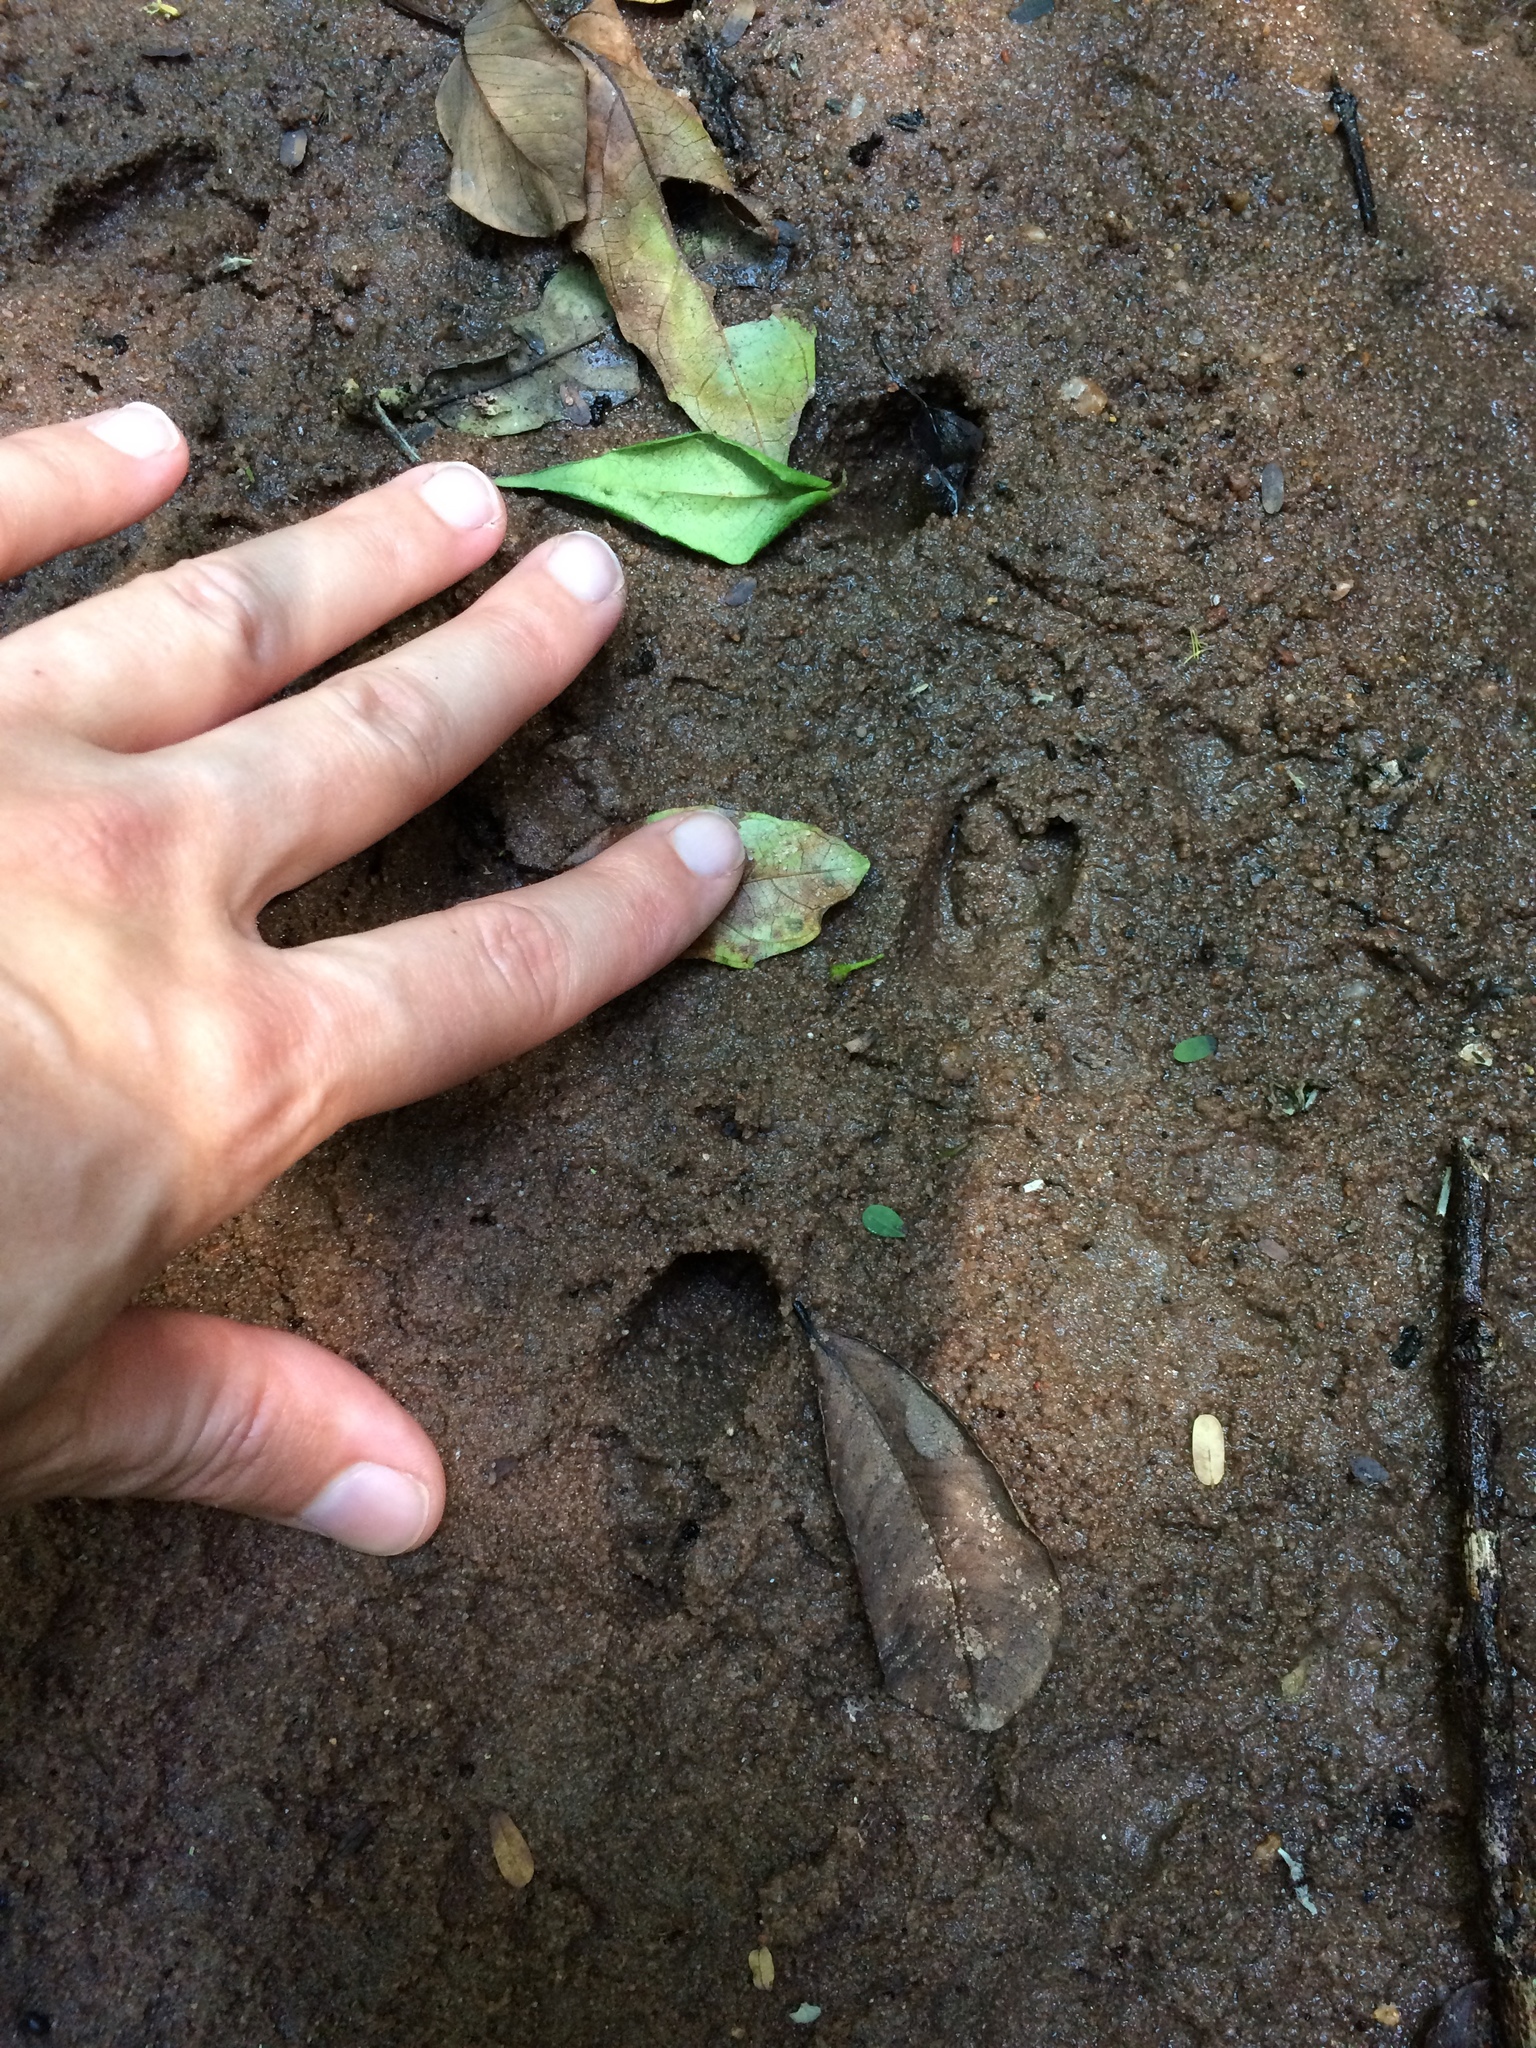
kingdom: Animalia
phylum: Chordata
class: Mammalia
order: Artiodactyla
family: Bovidae
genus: Philantomba
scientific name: Philantomba monticola
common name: Blue duiker
